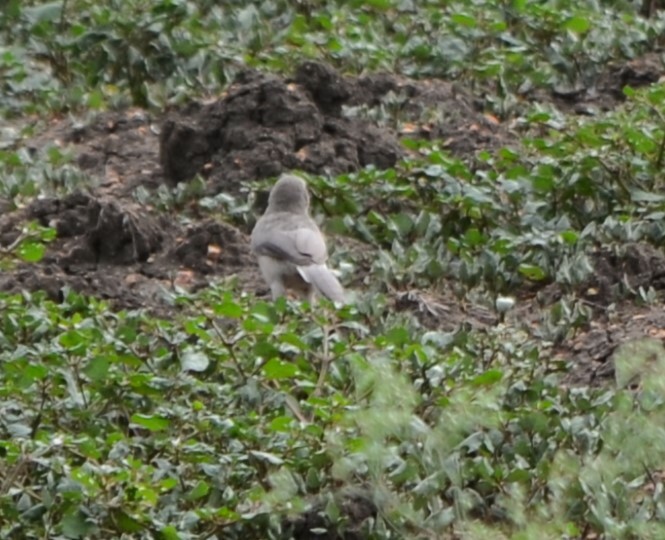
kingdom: Animalia
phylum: Chordata
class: Aves
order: Passeriformes
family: Leiothrichidae
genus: Turdoides
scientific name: Turdoides malcolmi
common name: Large grey babbler
